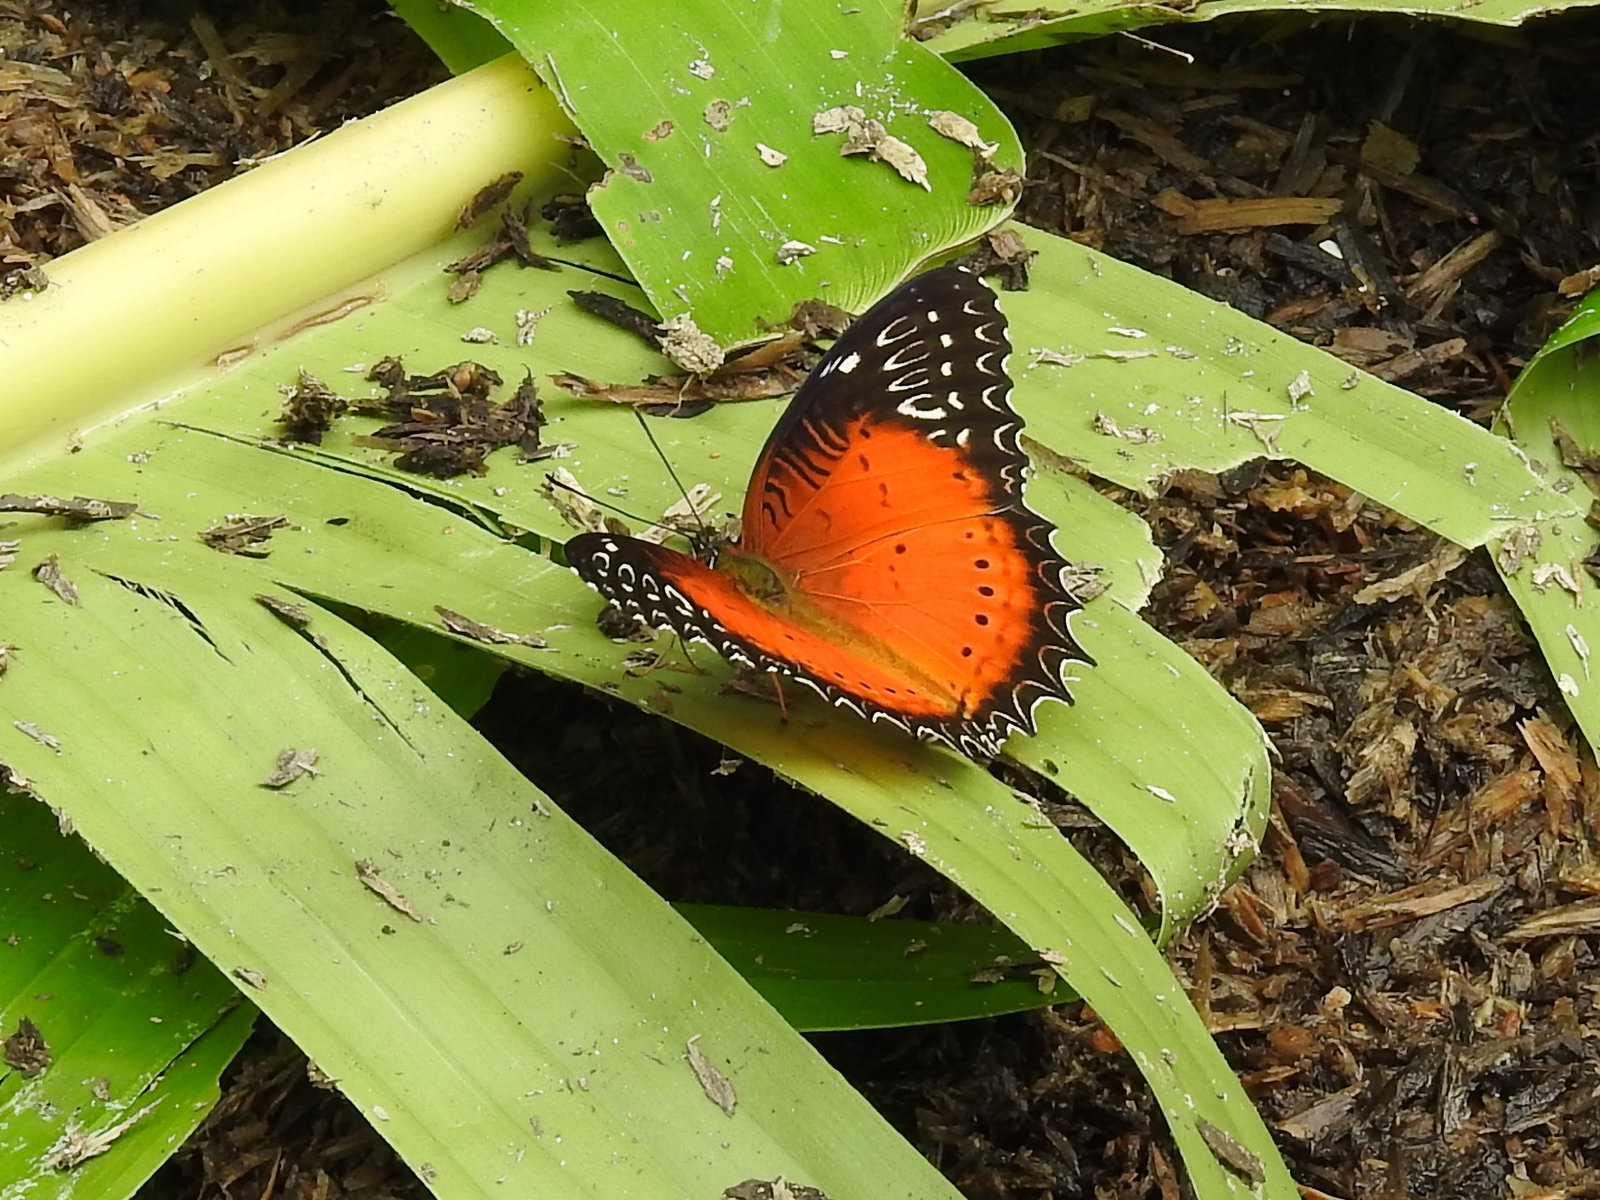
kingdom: Animalia
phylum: Arthropoda
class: Insecta
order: Lepidoptera
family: Nymphalidae
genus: Cethosia
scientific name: Cethosia biblis
